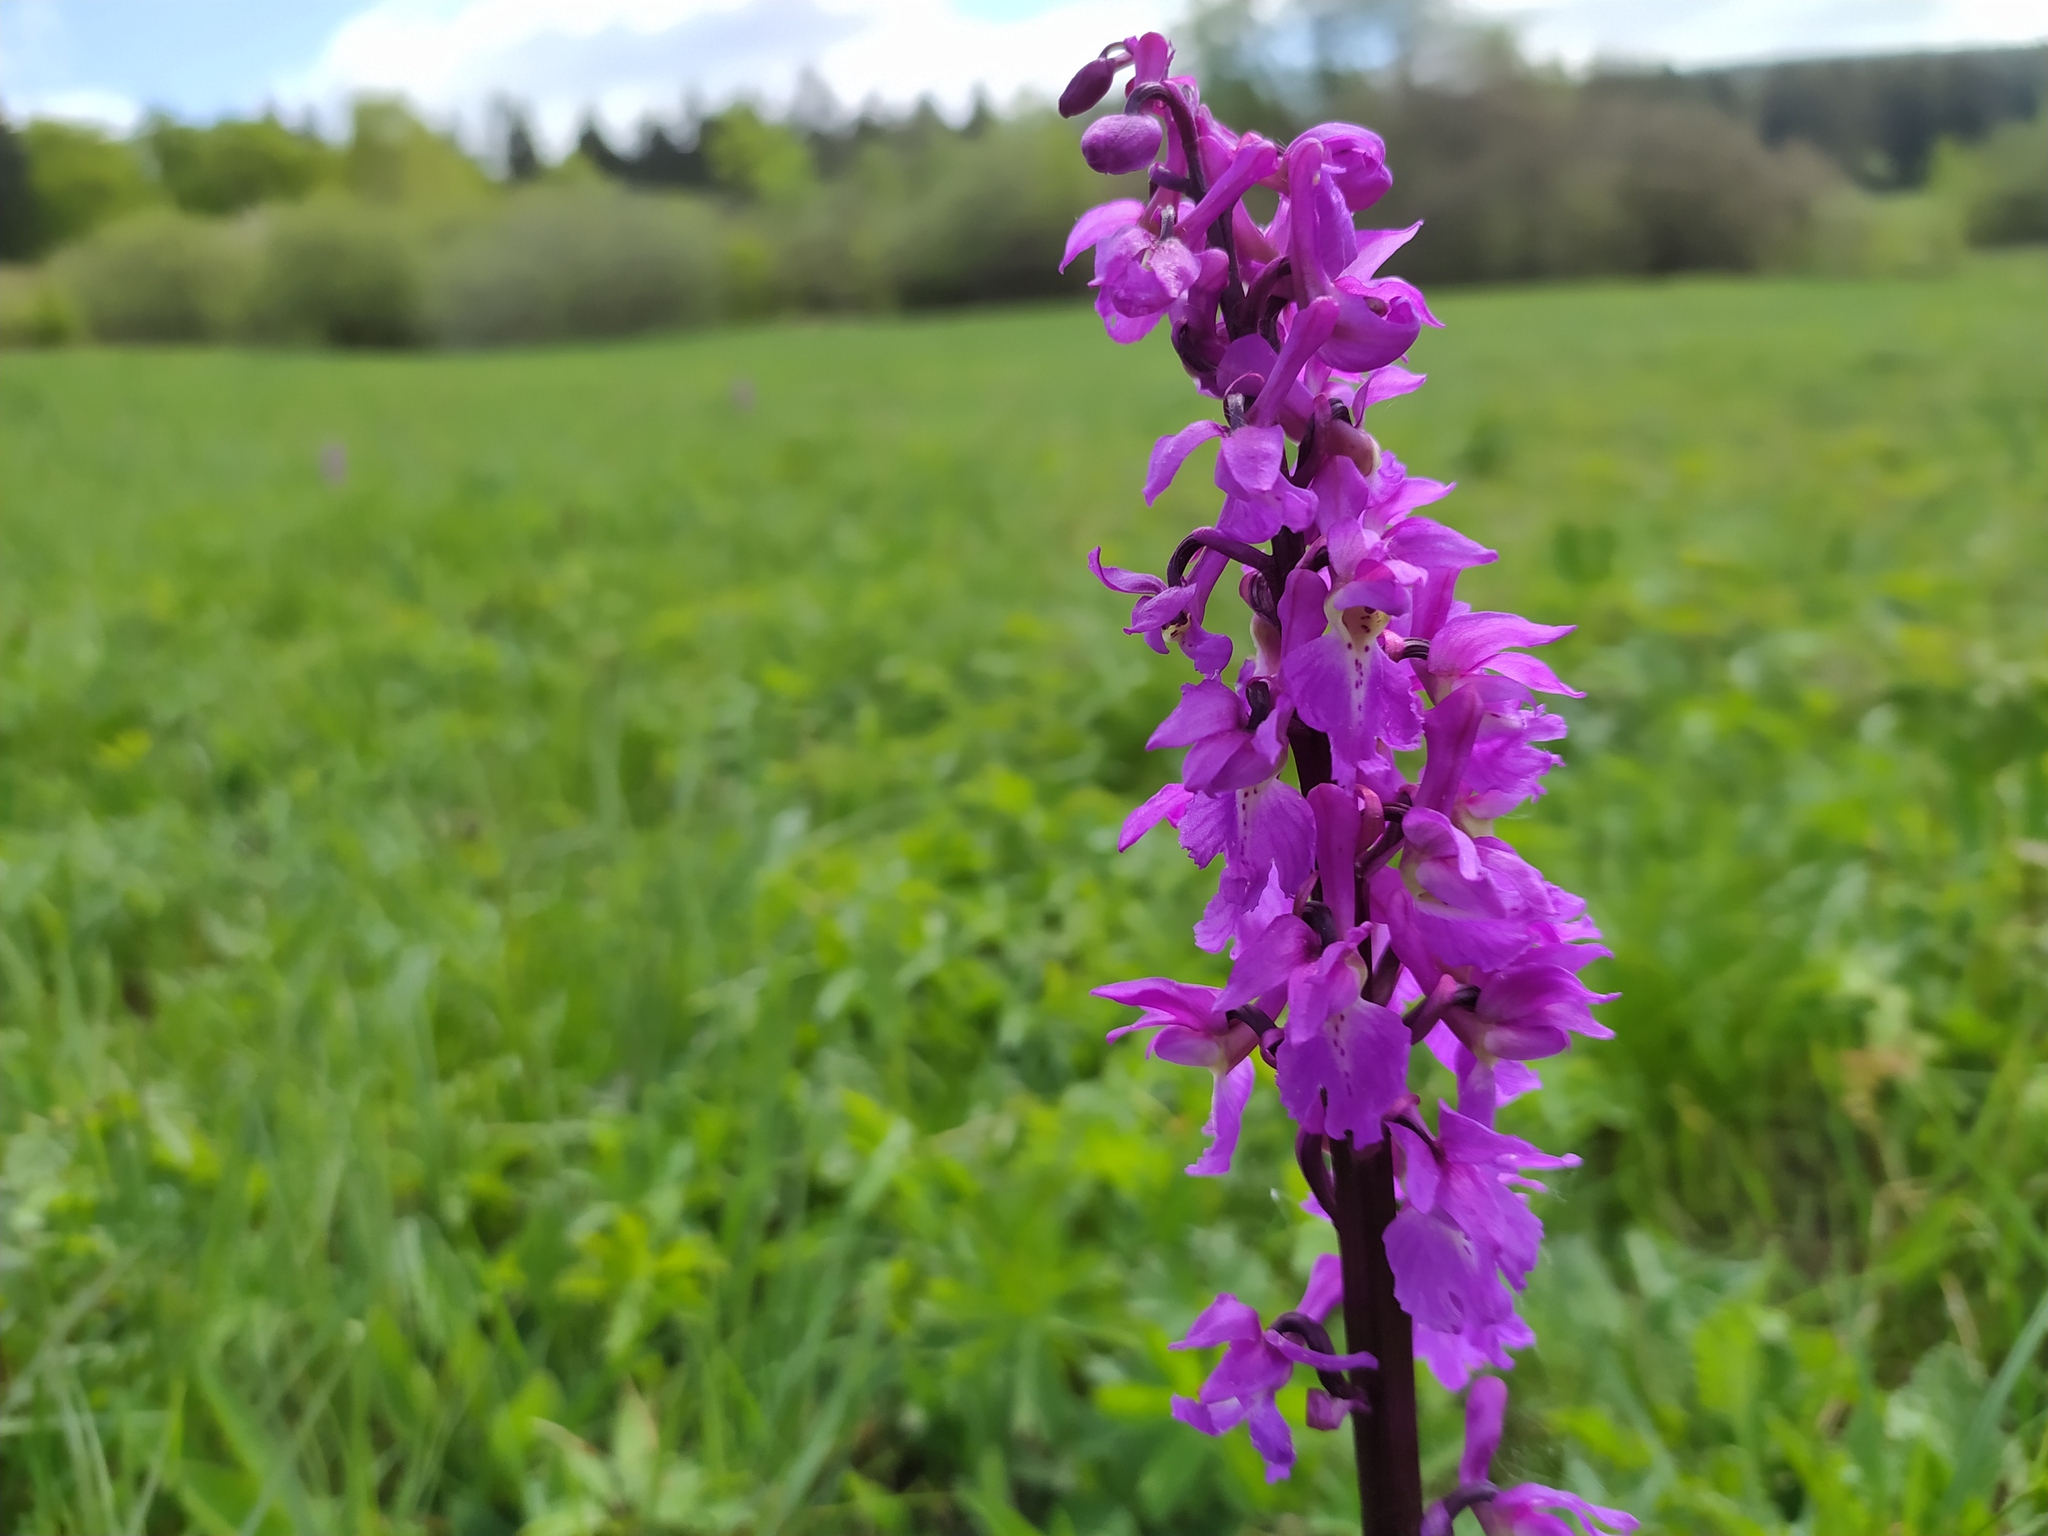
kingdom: Plantae
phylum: Tracheophyta
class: Liliopsida
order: Asparagales
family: Orchidaceae
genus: Orchis
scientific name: Orchis mascula
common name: Early-purple orchid
